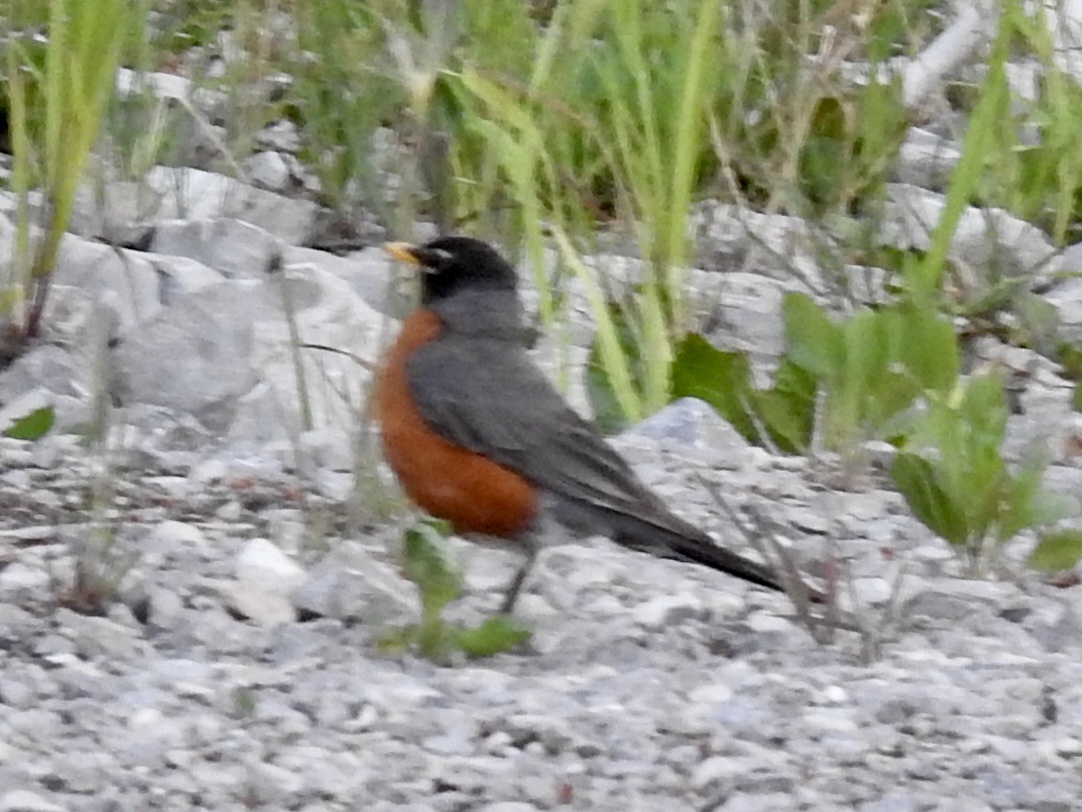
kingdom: Animalia
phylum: Chordata
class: Aves
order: Passeriformes
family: Turdidae
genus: Turdus
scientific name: Turdus migratorius
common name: American robin
